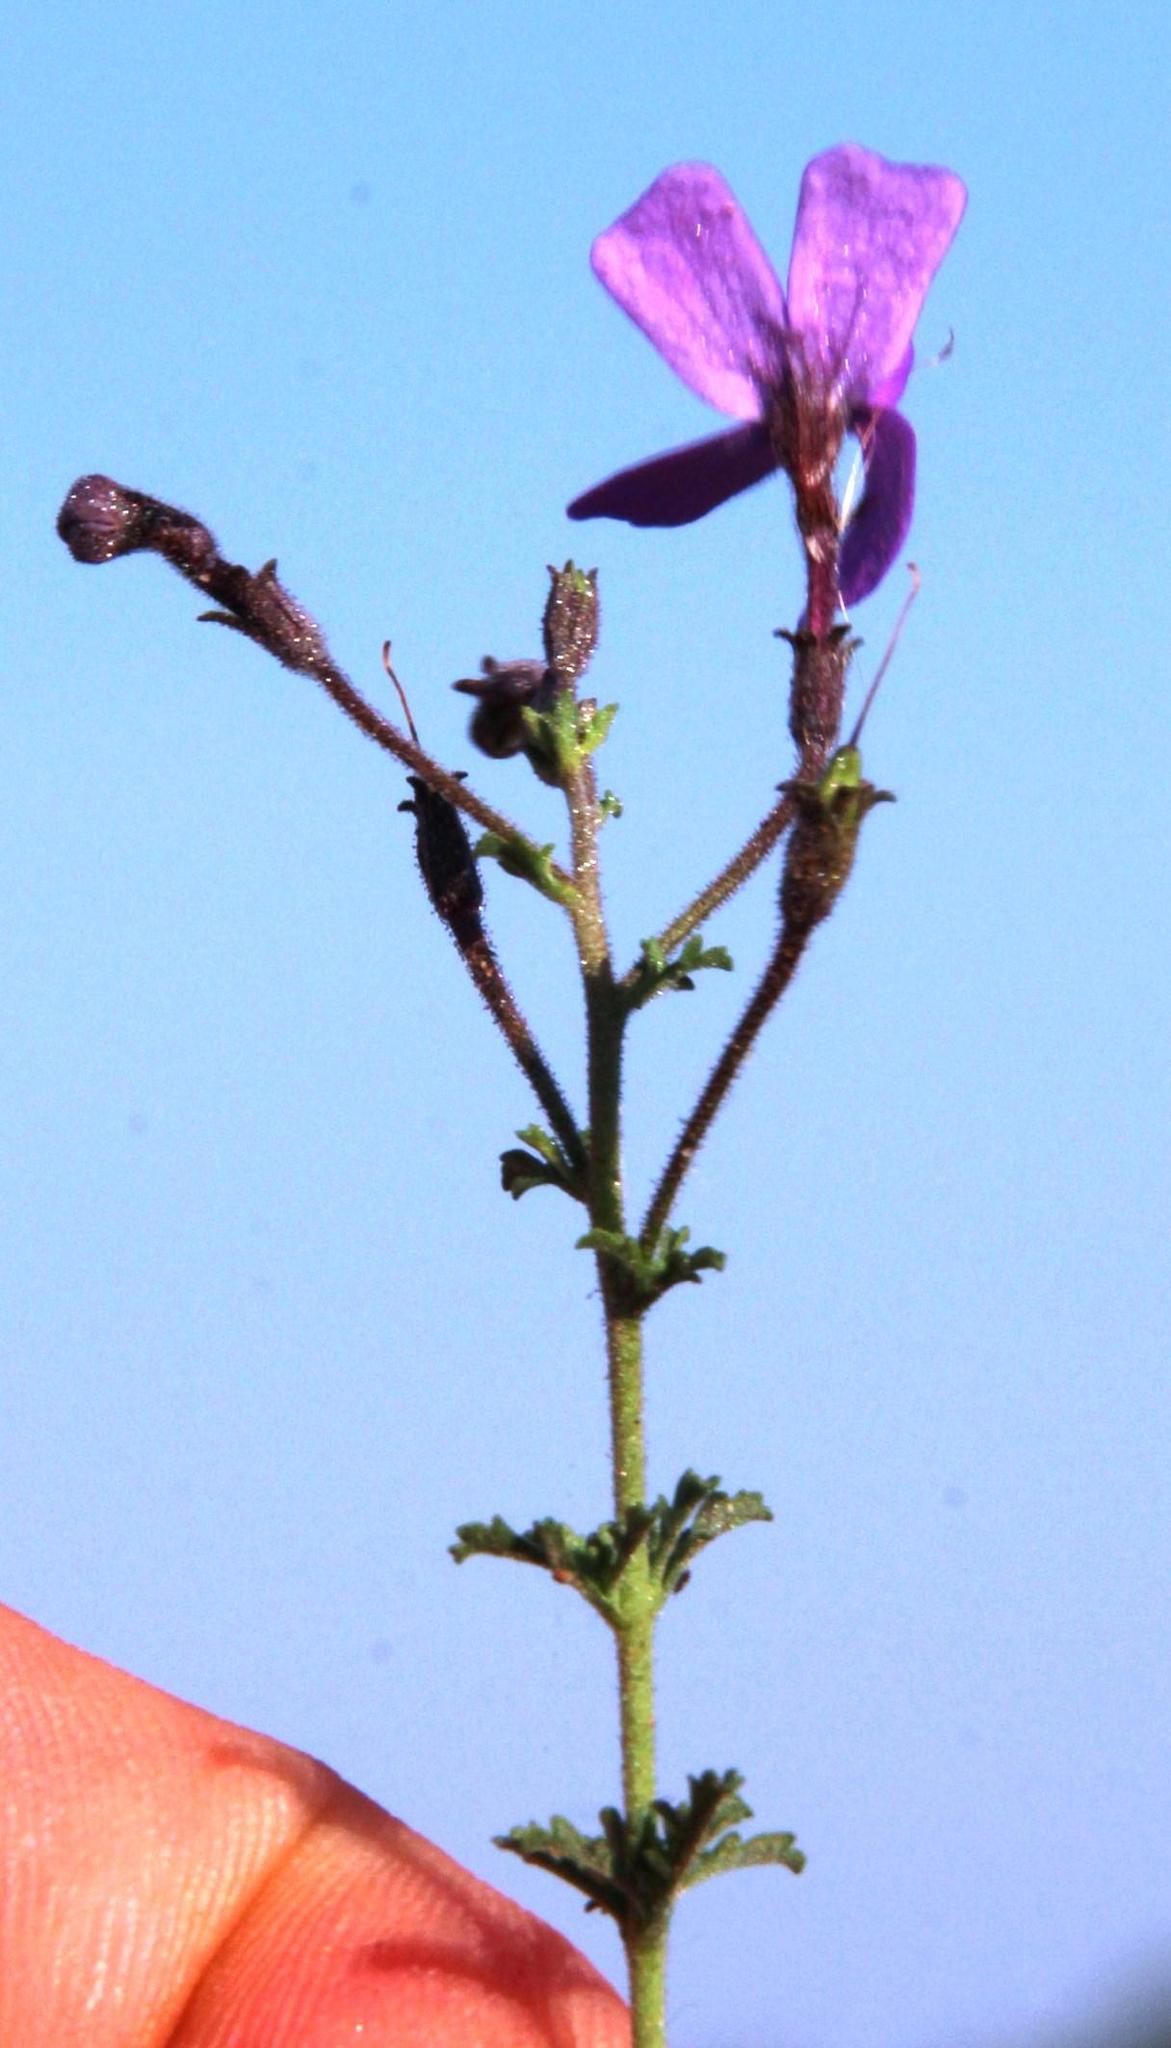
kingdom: Plantae
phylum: Tracheophyta
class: Magnoliopsida
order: Lamiales
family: Scrophulariaceae
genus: Jamesbrittenia
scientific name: Jamesbrittenia pinnatifida
